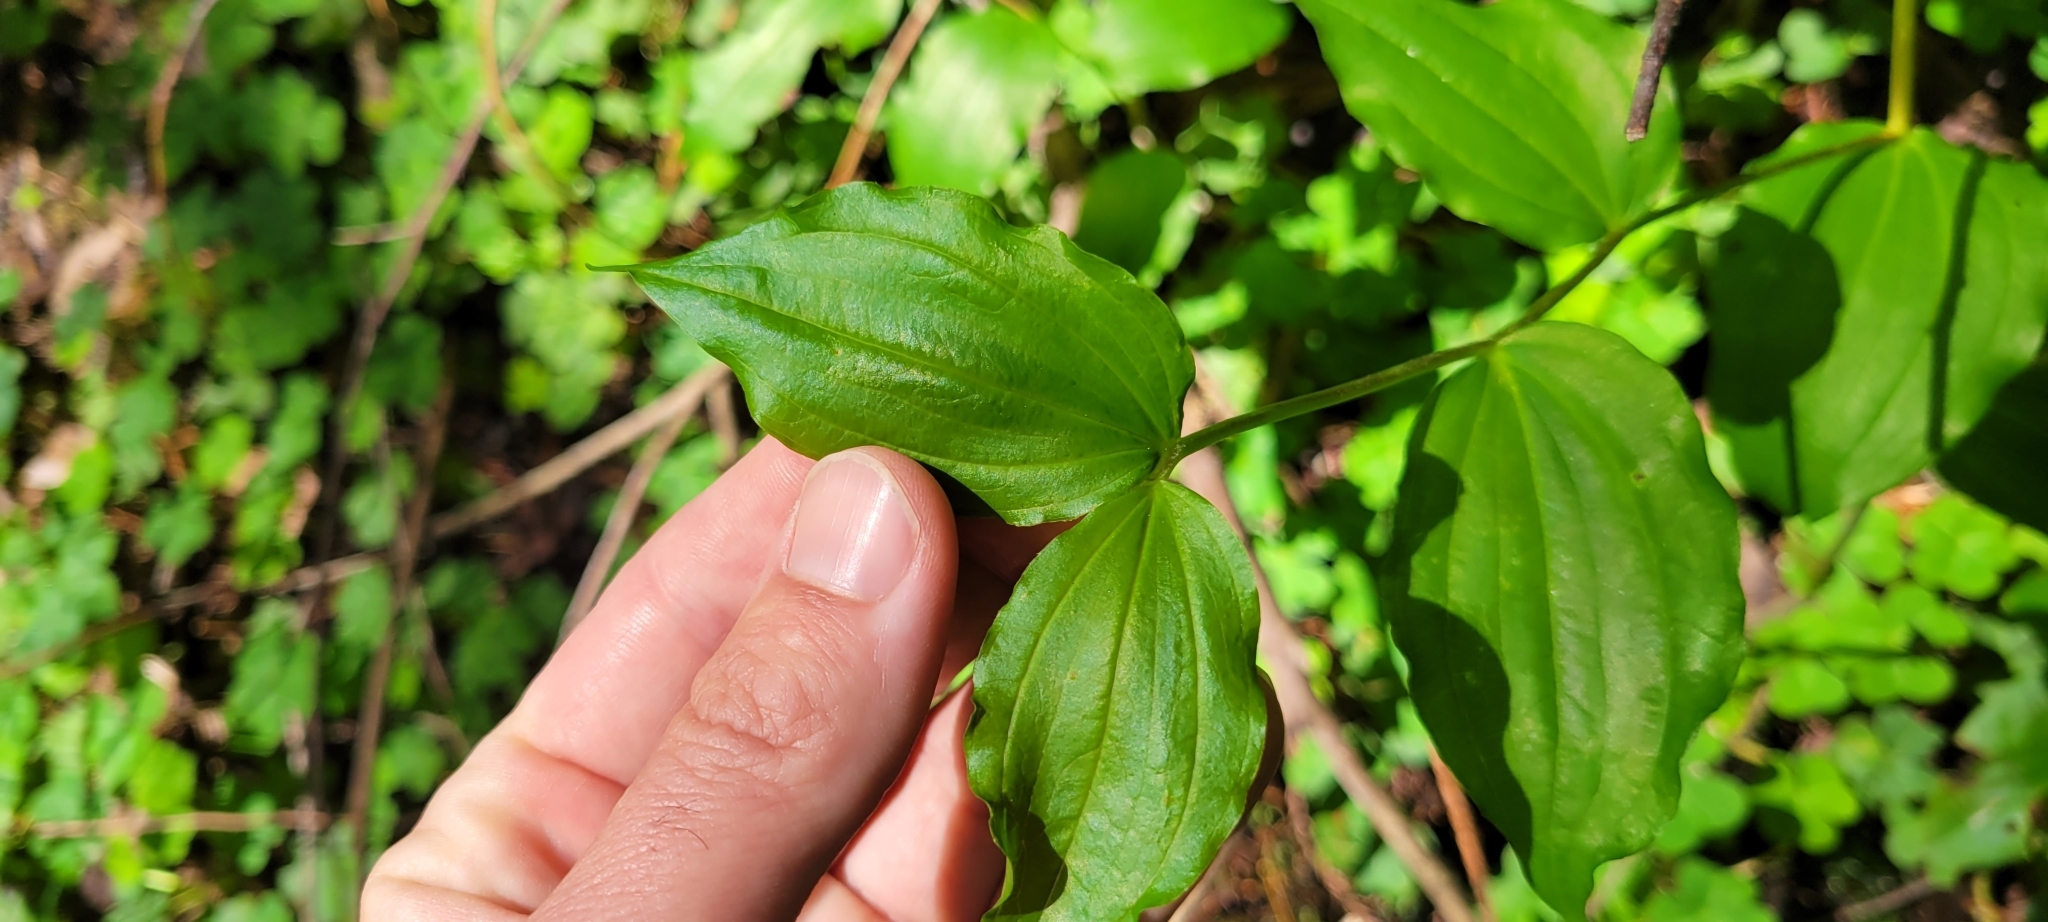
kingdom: Plantae
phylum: Tracheophyta
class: Liliopsida
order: Liliales
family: Liliaceae
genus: Prosartes
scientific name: Prosartes smithii
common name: Fairy-lantern
